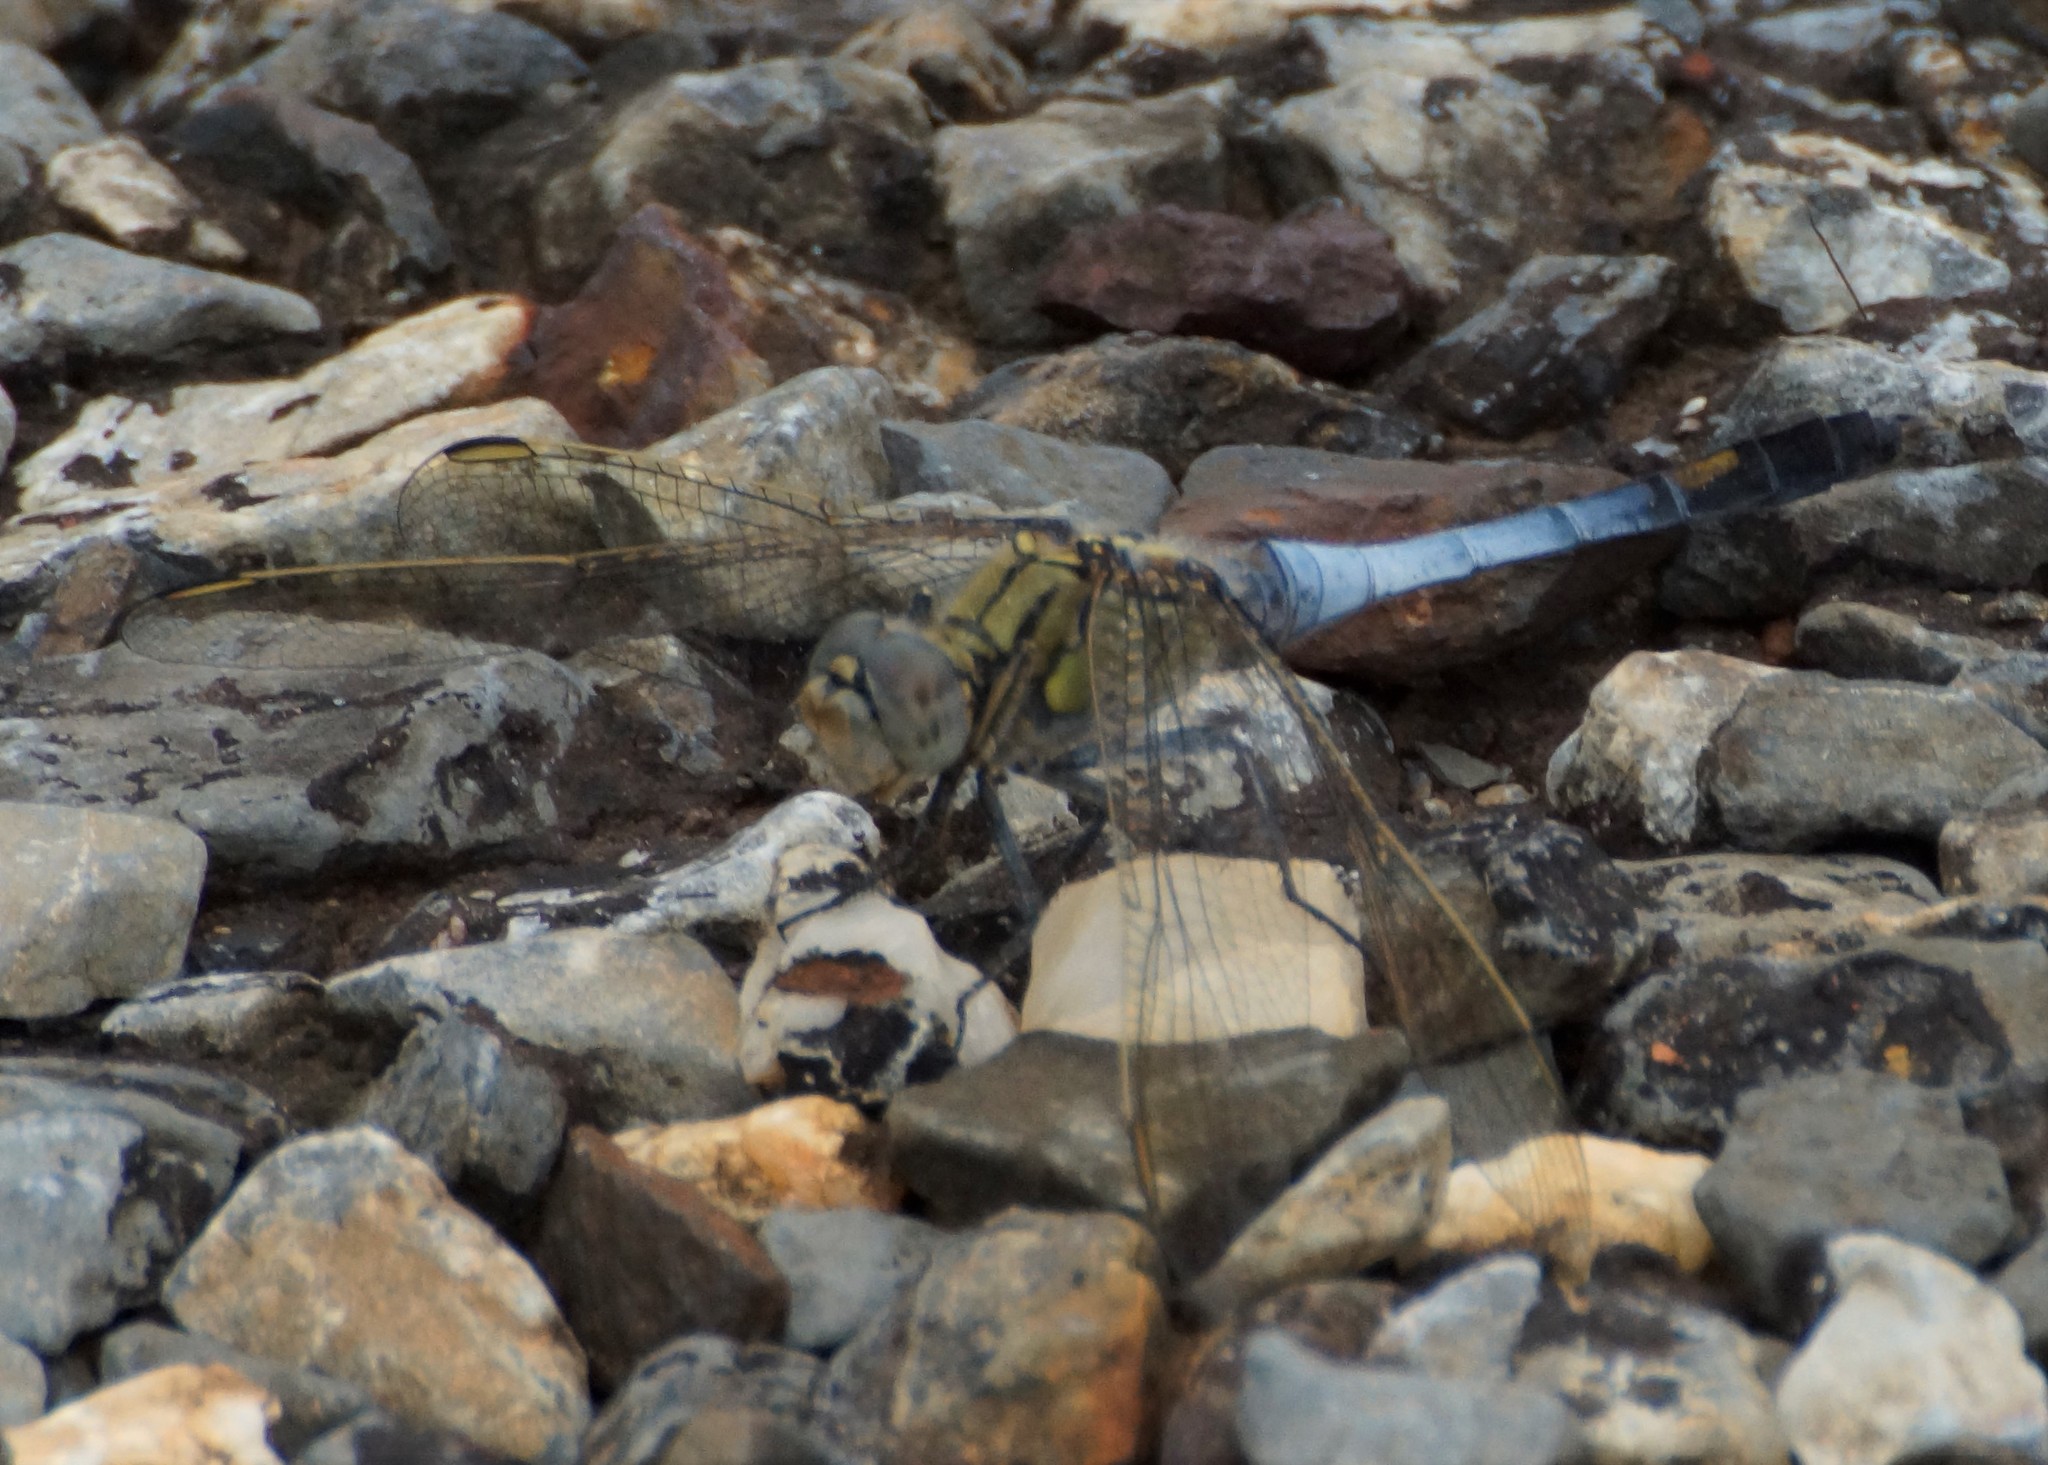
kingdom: Animalia
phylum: Arthropoda
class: Insecta
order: Odonata
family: Libellulidae
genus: Orthetrum
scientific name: Orthetrum caledonicum
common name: Blue skimmer
